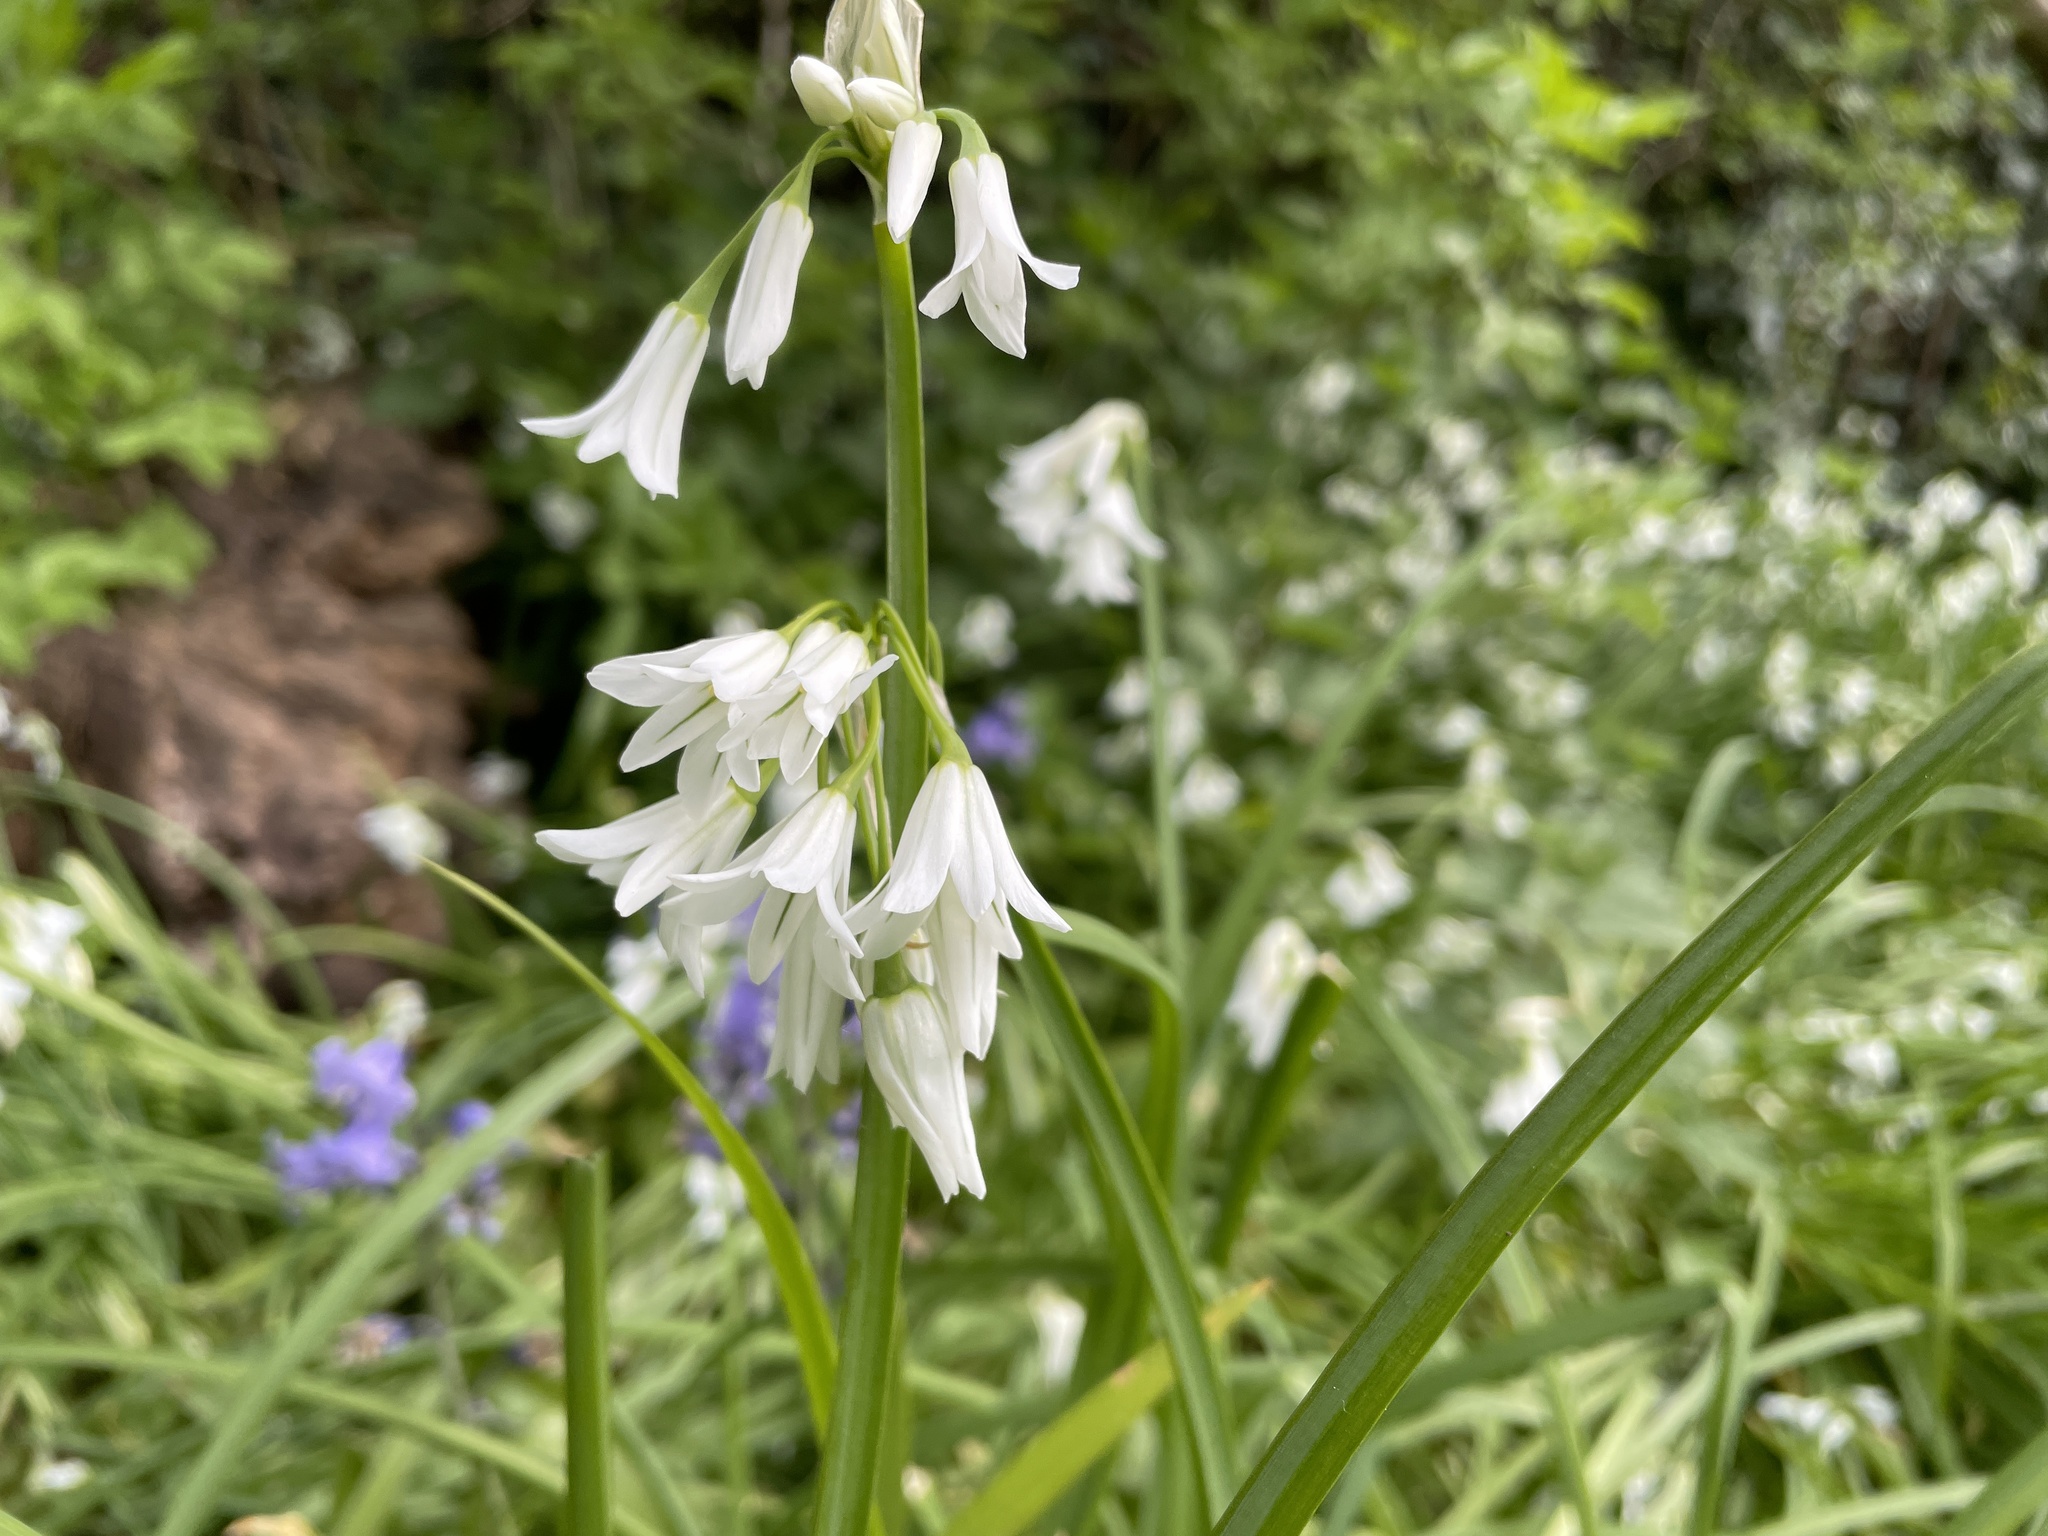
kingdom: Plantae
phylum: Tracheophyta
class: Liliopsida
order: Asparagales
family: Amaryllidaceae
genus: Allium
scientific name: Allium triquetrum
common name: Three-cornered garlic
